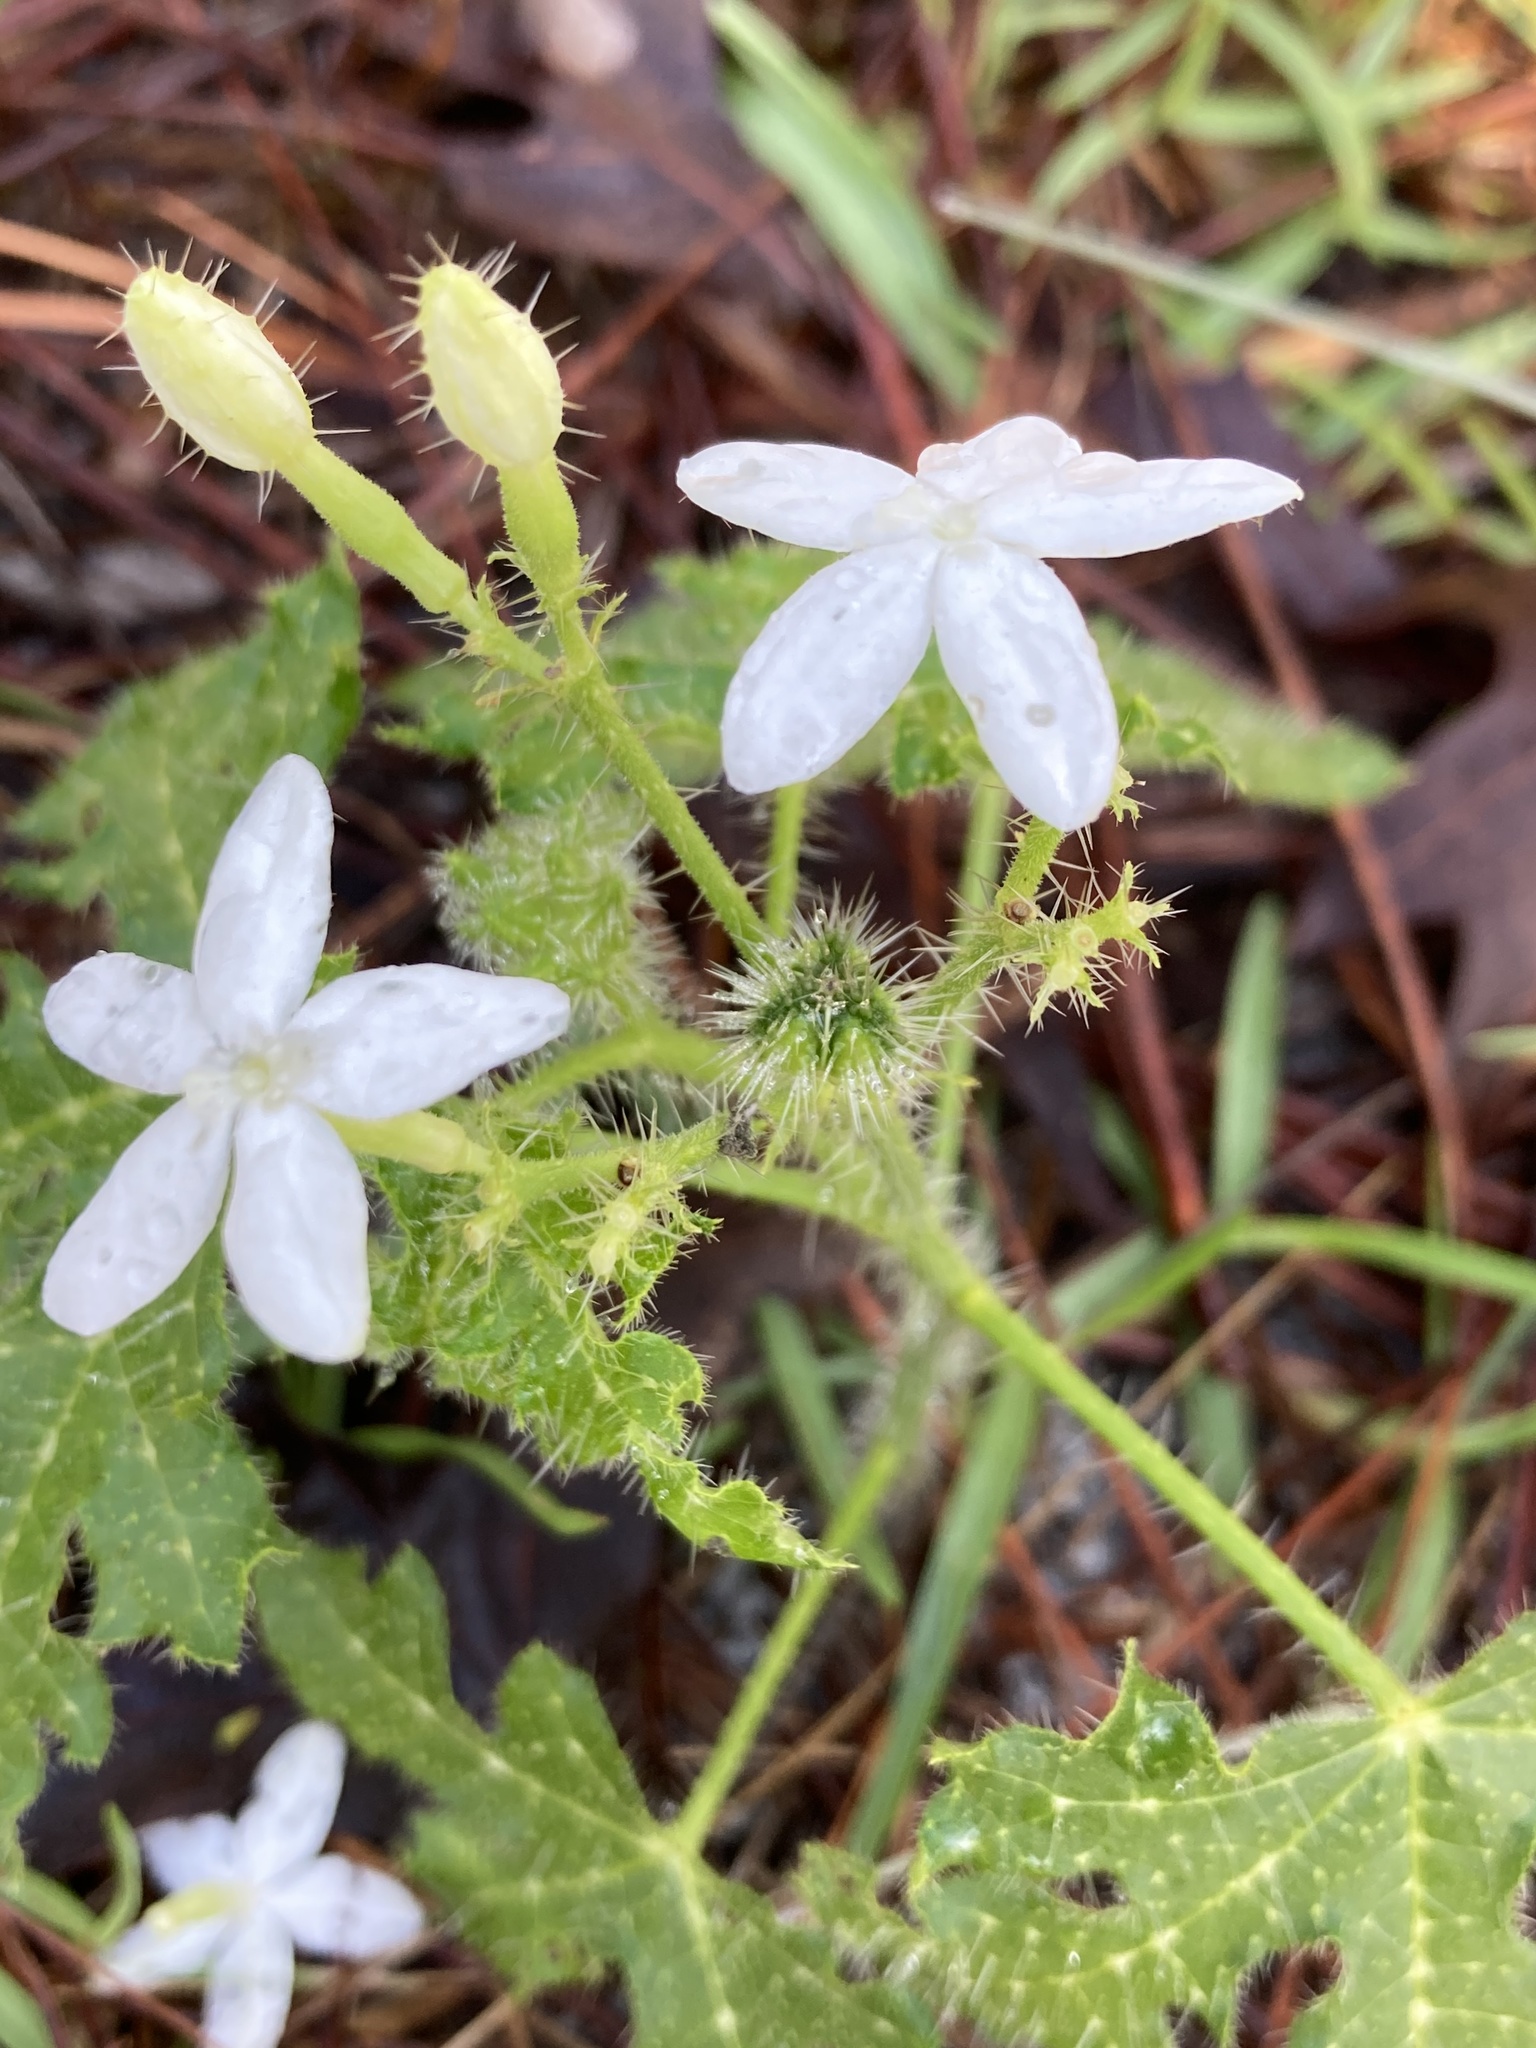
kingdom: Plantae
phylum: Tracheophyta
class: Magnoliopsida
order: Malpighiales
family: Euphorbiaceae
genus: Cnidoscolus
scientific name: Cnidoscolus stimulosus
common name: Bull-nettle
